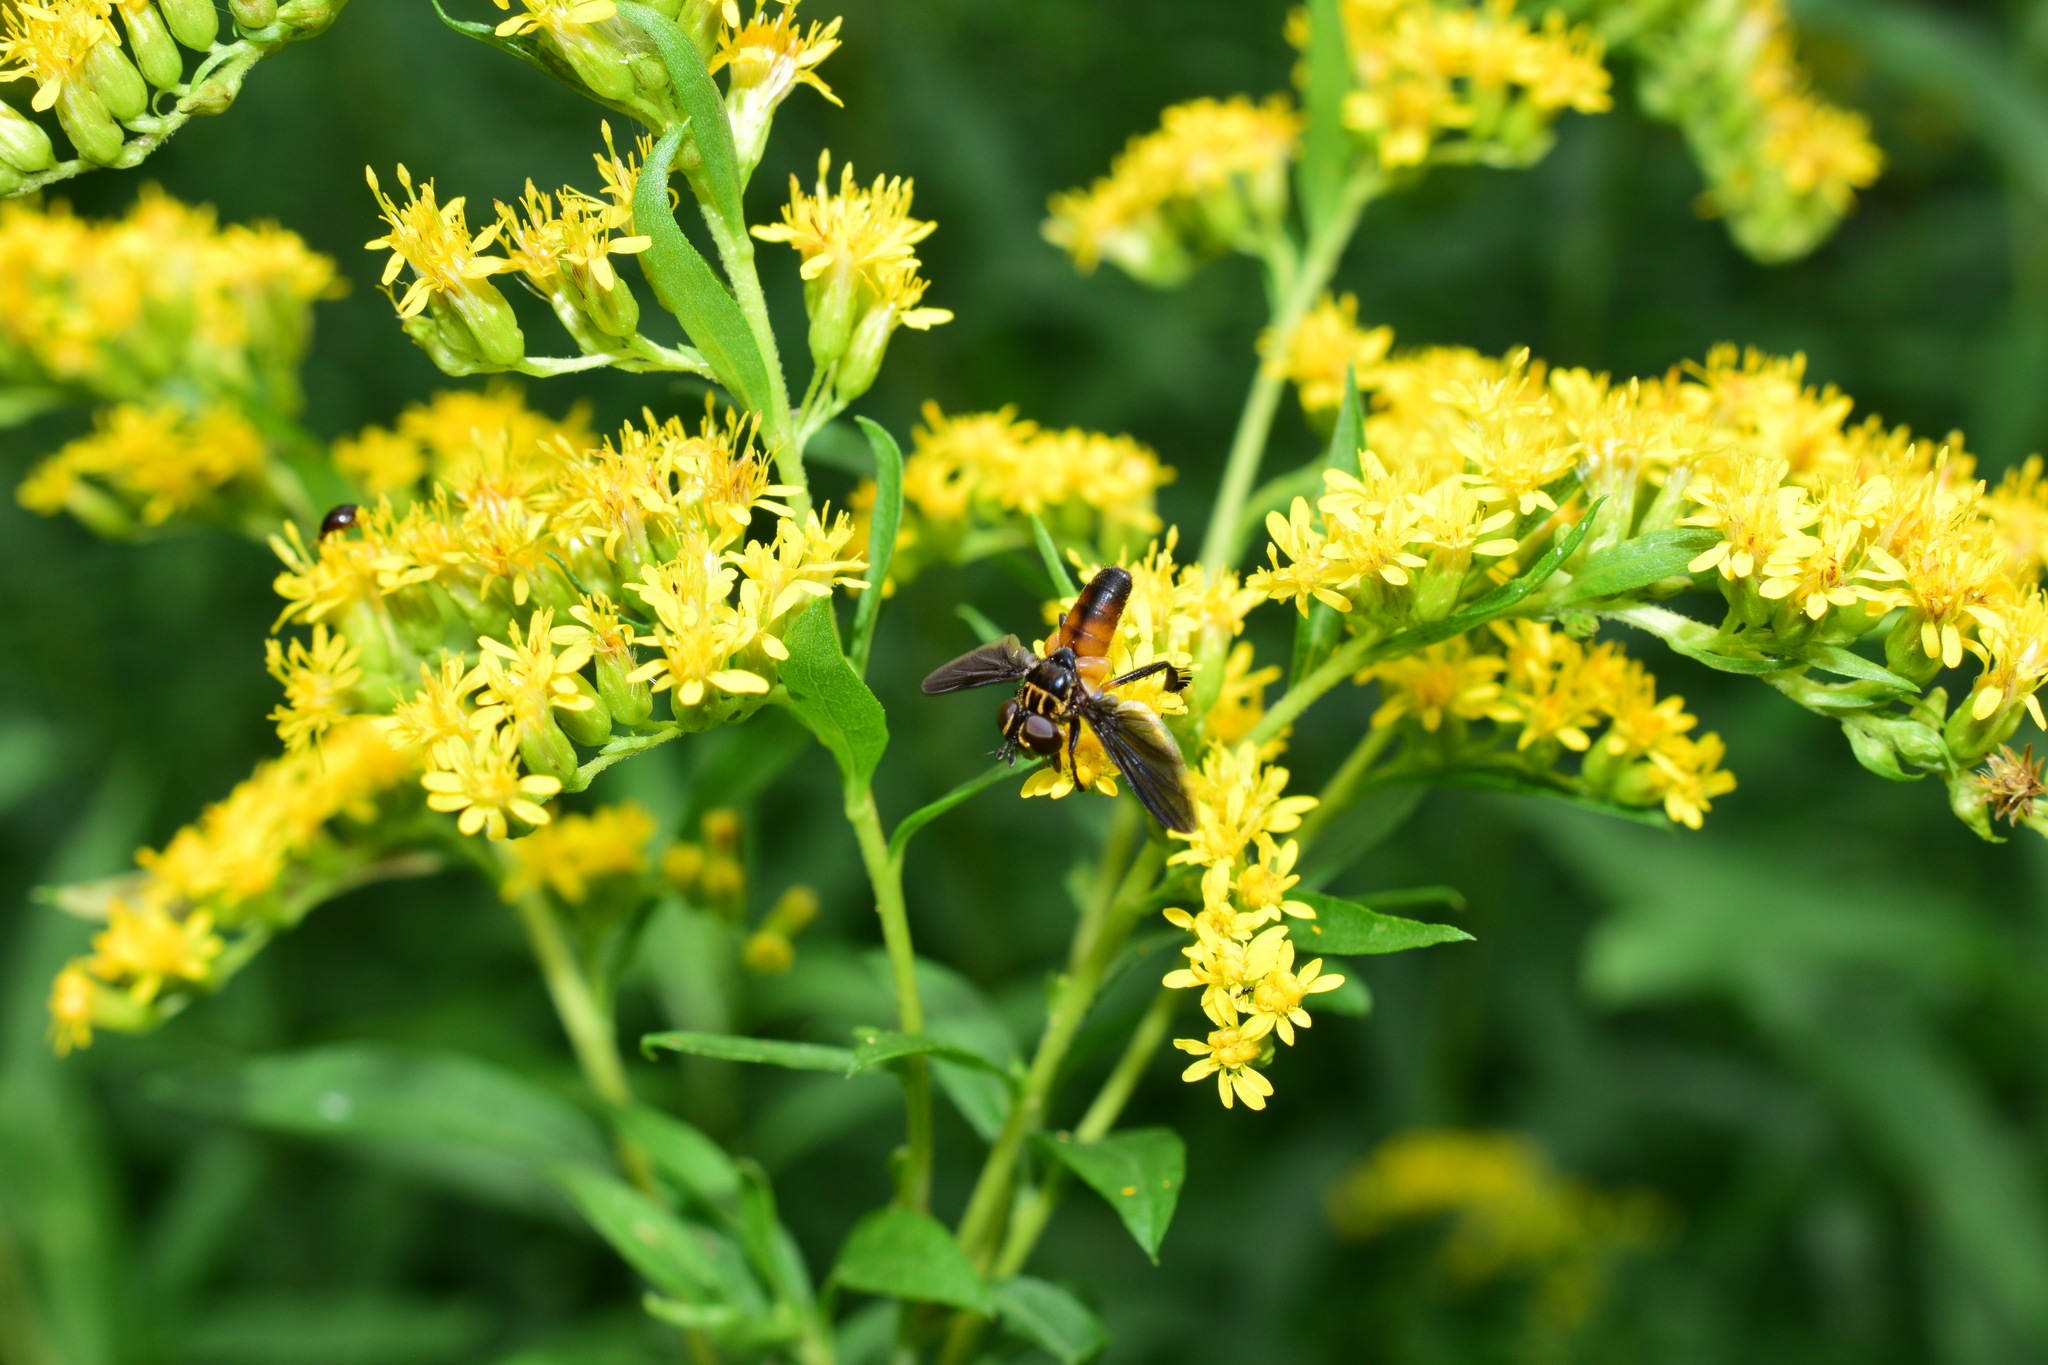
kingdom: Animalia
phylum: Arthropoda
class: Insecta
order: Diptera
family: Tachinidae
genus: Trichopoda
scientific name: Trichopoda pennipes
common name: Tachinid fly
